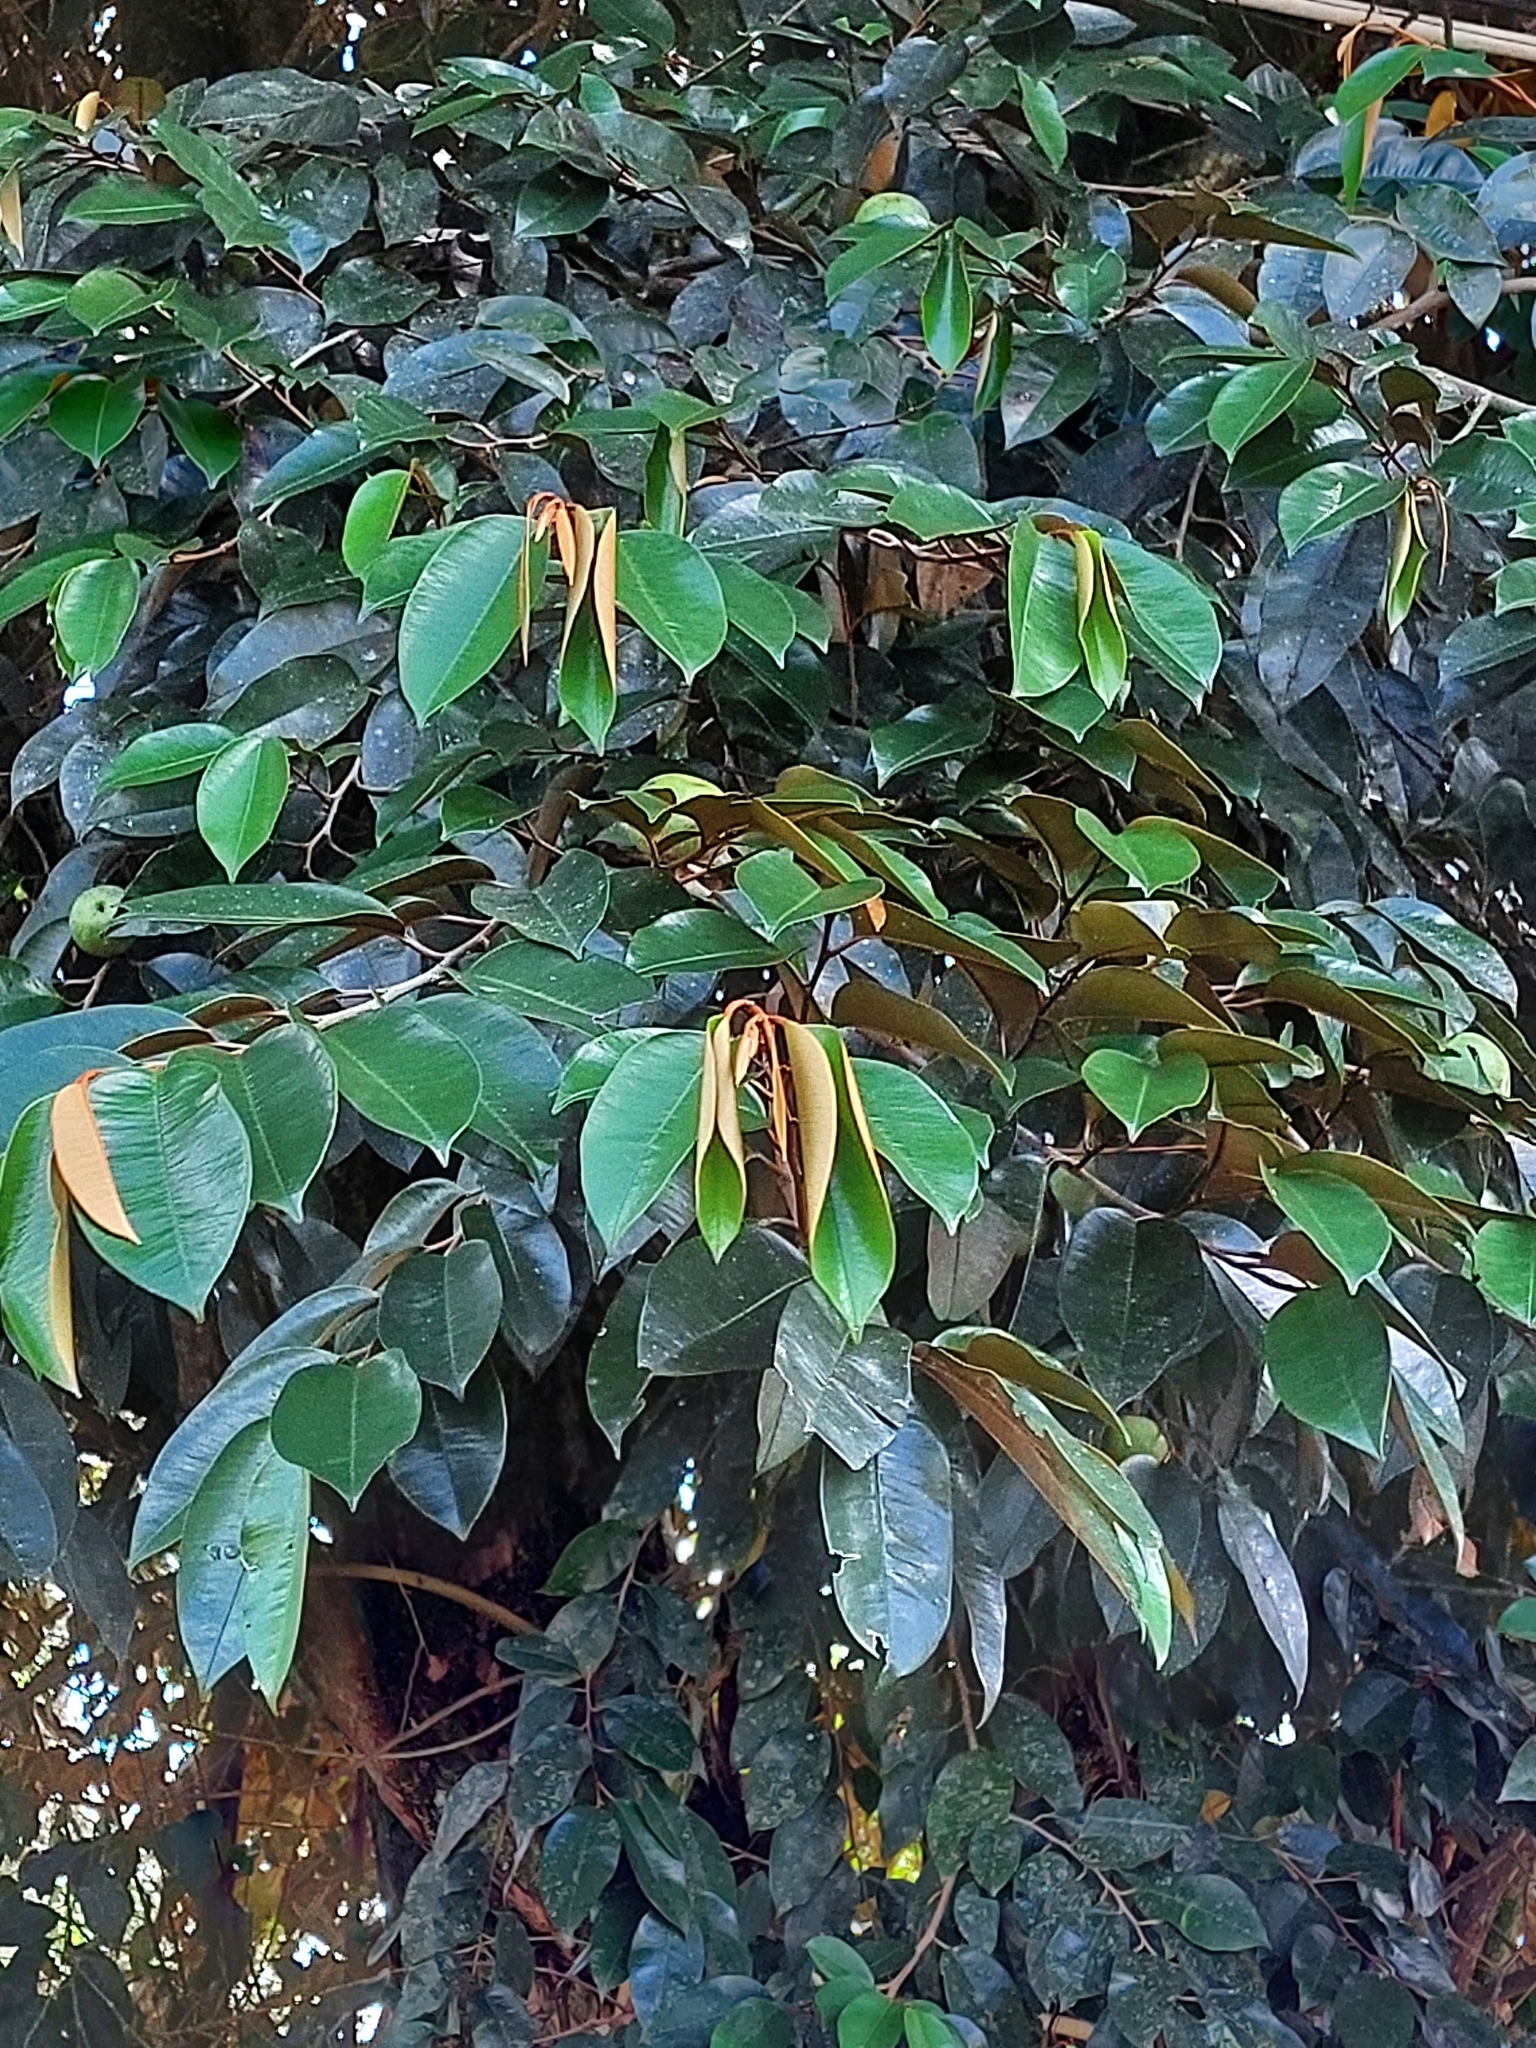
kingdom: Plantae
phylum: Tracheophyta
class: Magnoliopsida
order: Ericales
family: Sapotaceae
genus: Chrysophyllum
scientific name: Chrysophyllum cainito
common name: Star-apple
